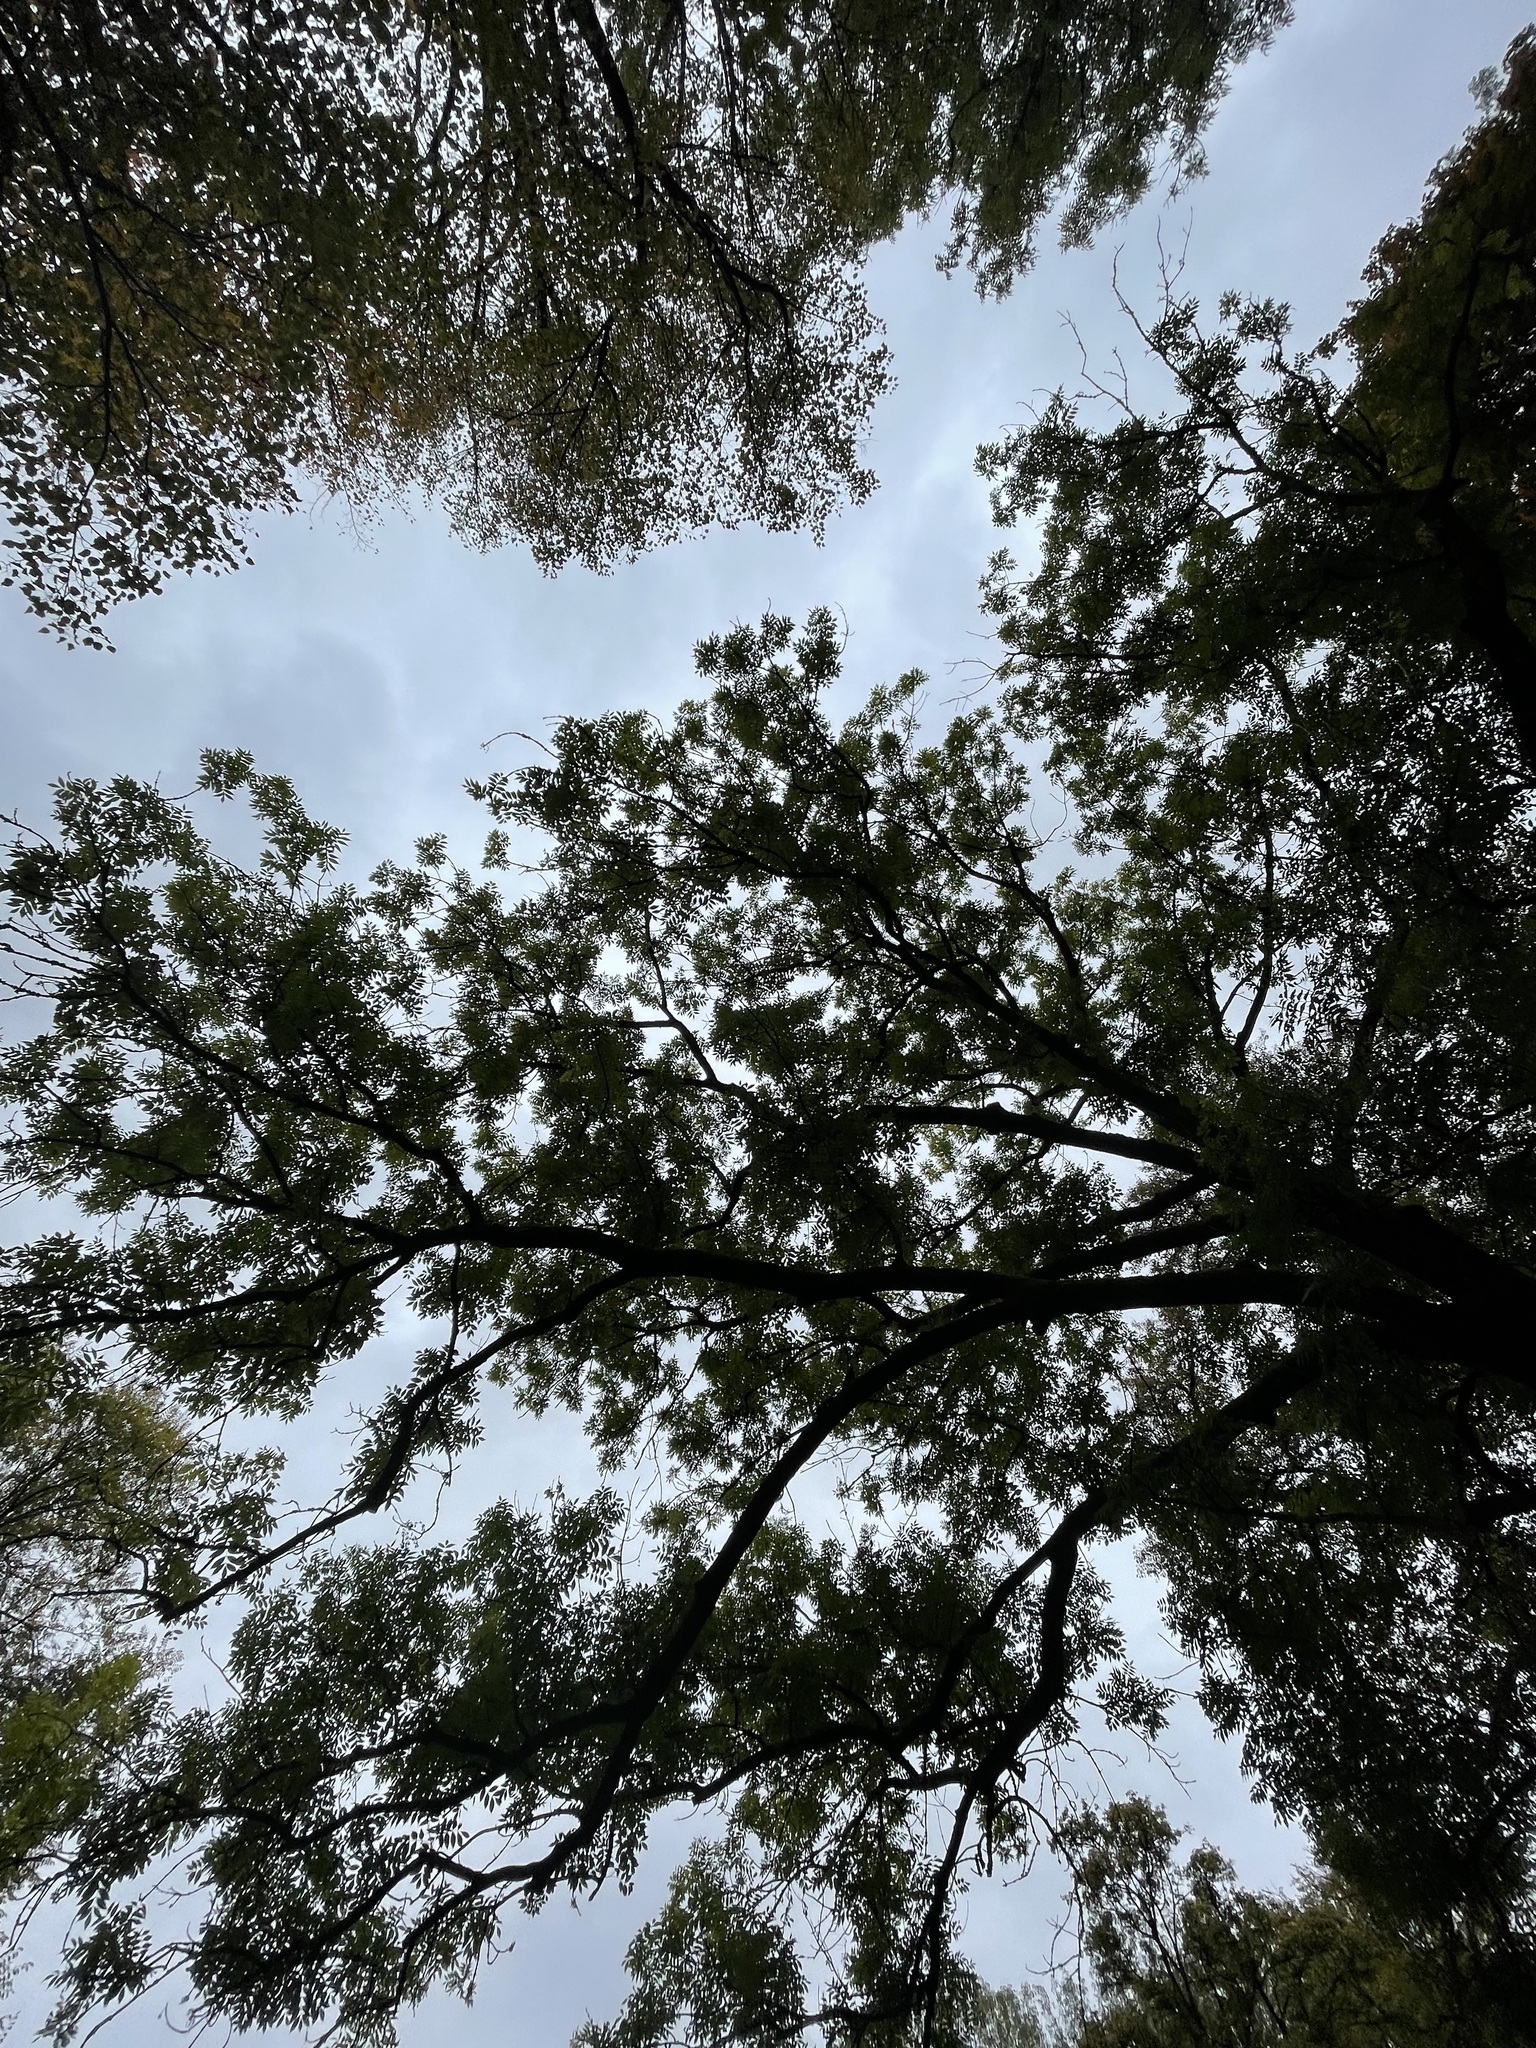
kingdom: Plantae
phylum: Tracheophyta
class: Magnoliopsida
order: Lamiales
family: Oleaceae
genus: Fraxinus
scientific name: Fraxinus excelsior
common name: European ash
